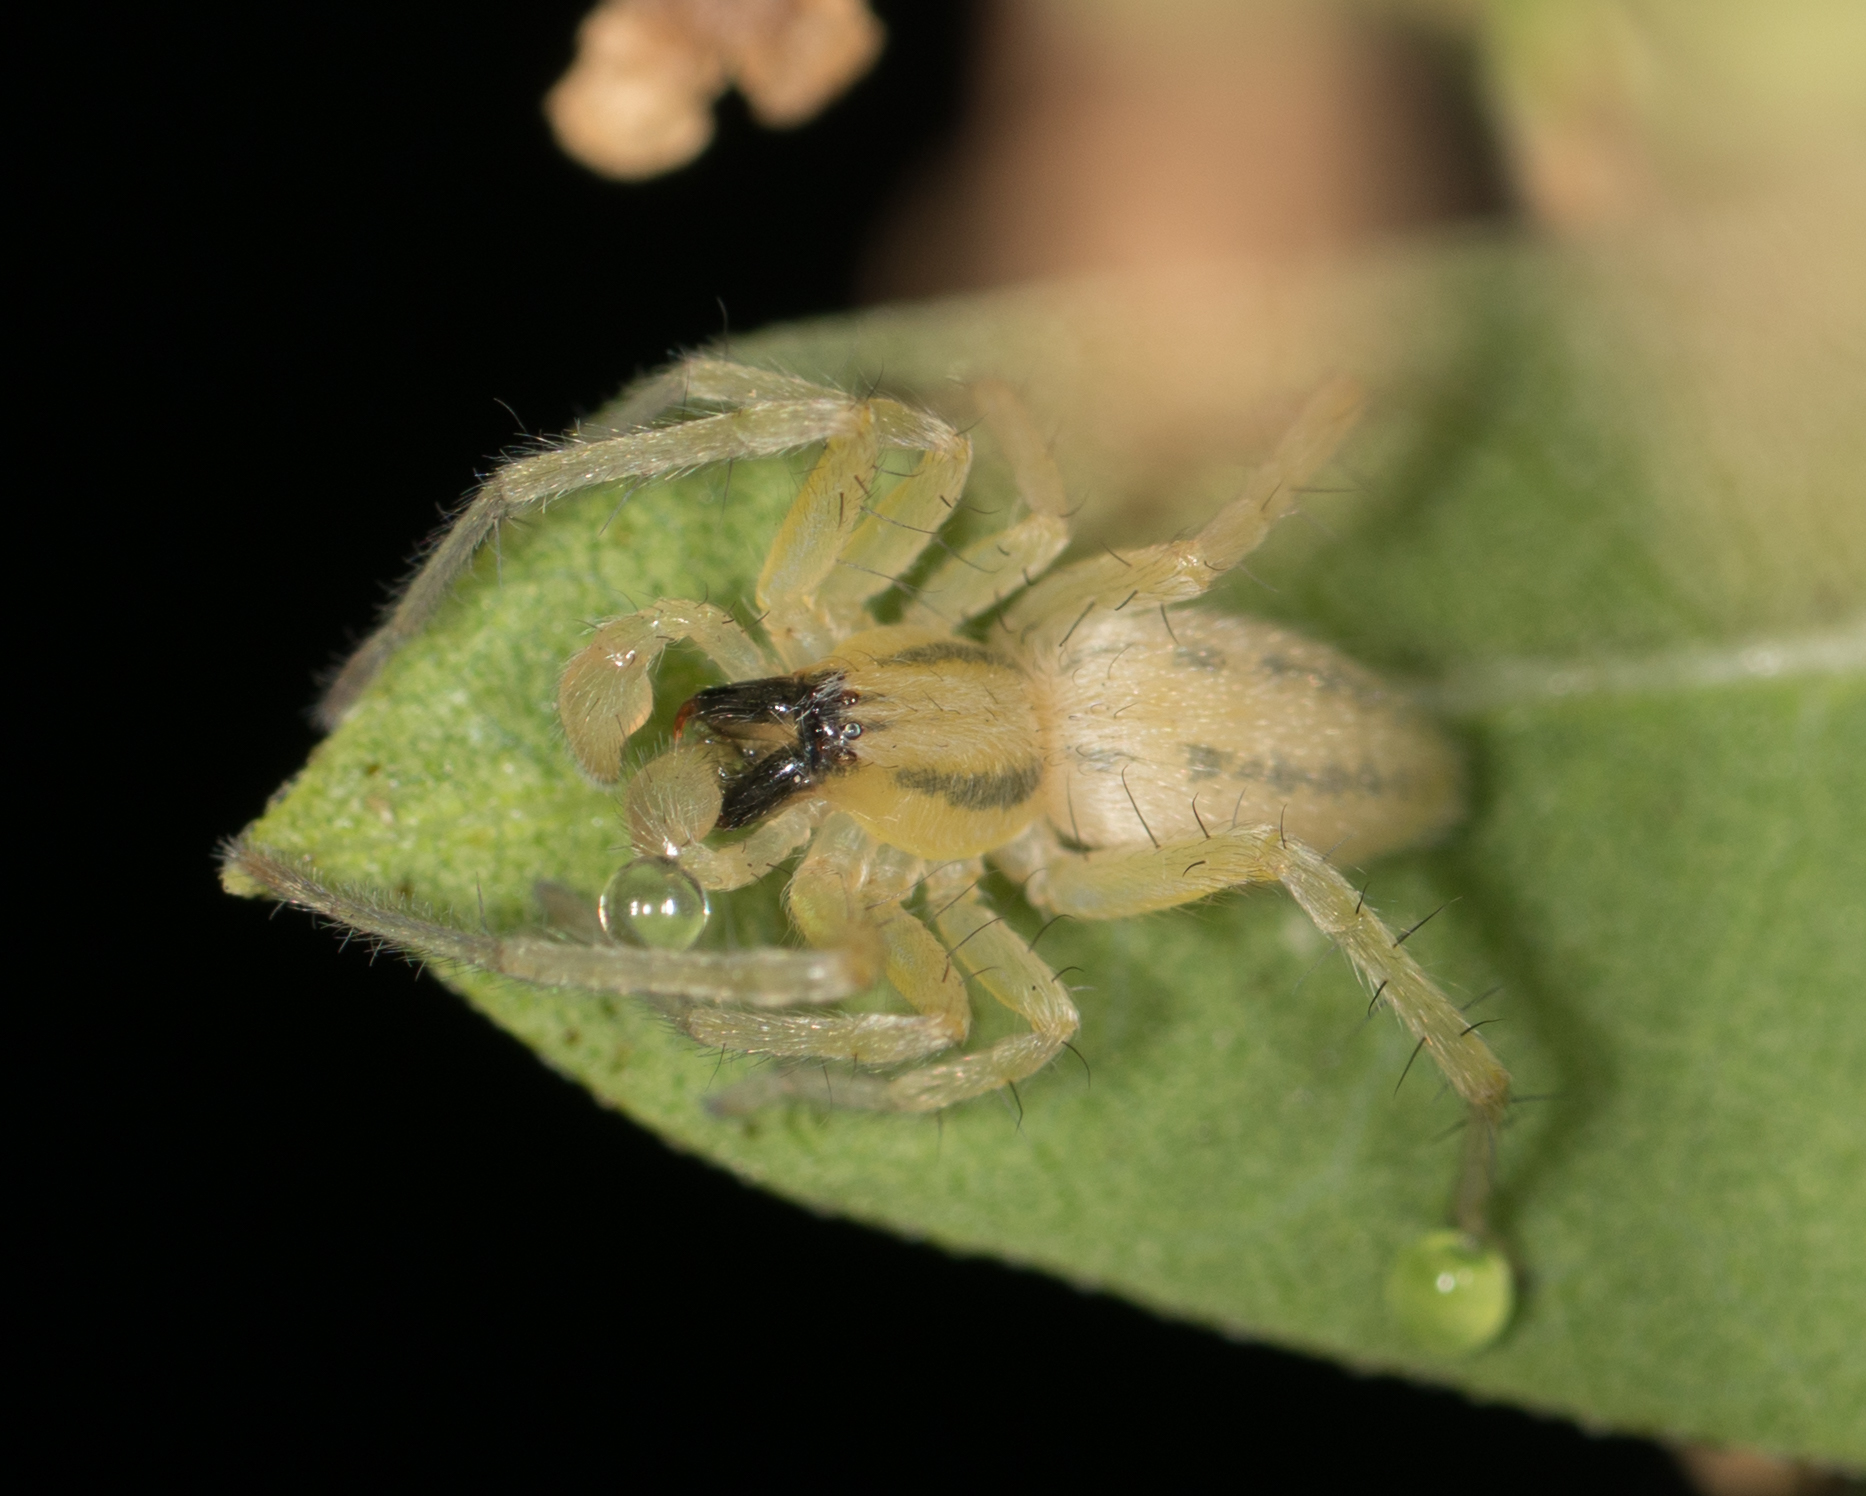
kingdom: Animalia
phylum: Arthropoda
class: Arachnida
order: Araneae
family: Anyphaenidae
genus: Hibana
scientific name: Hibana incursa
